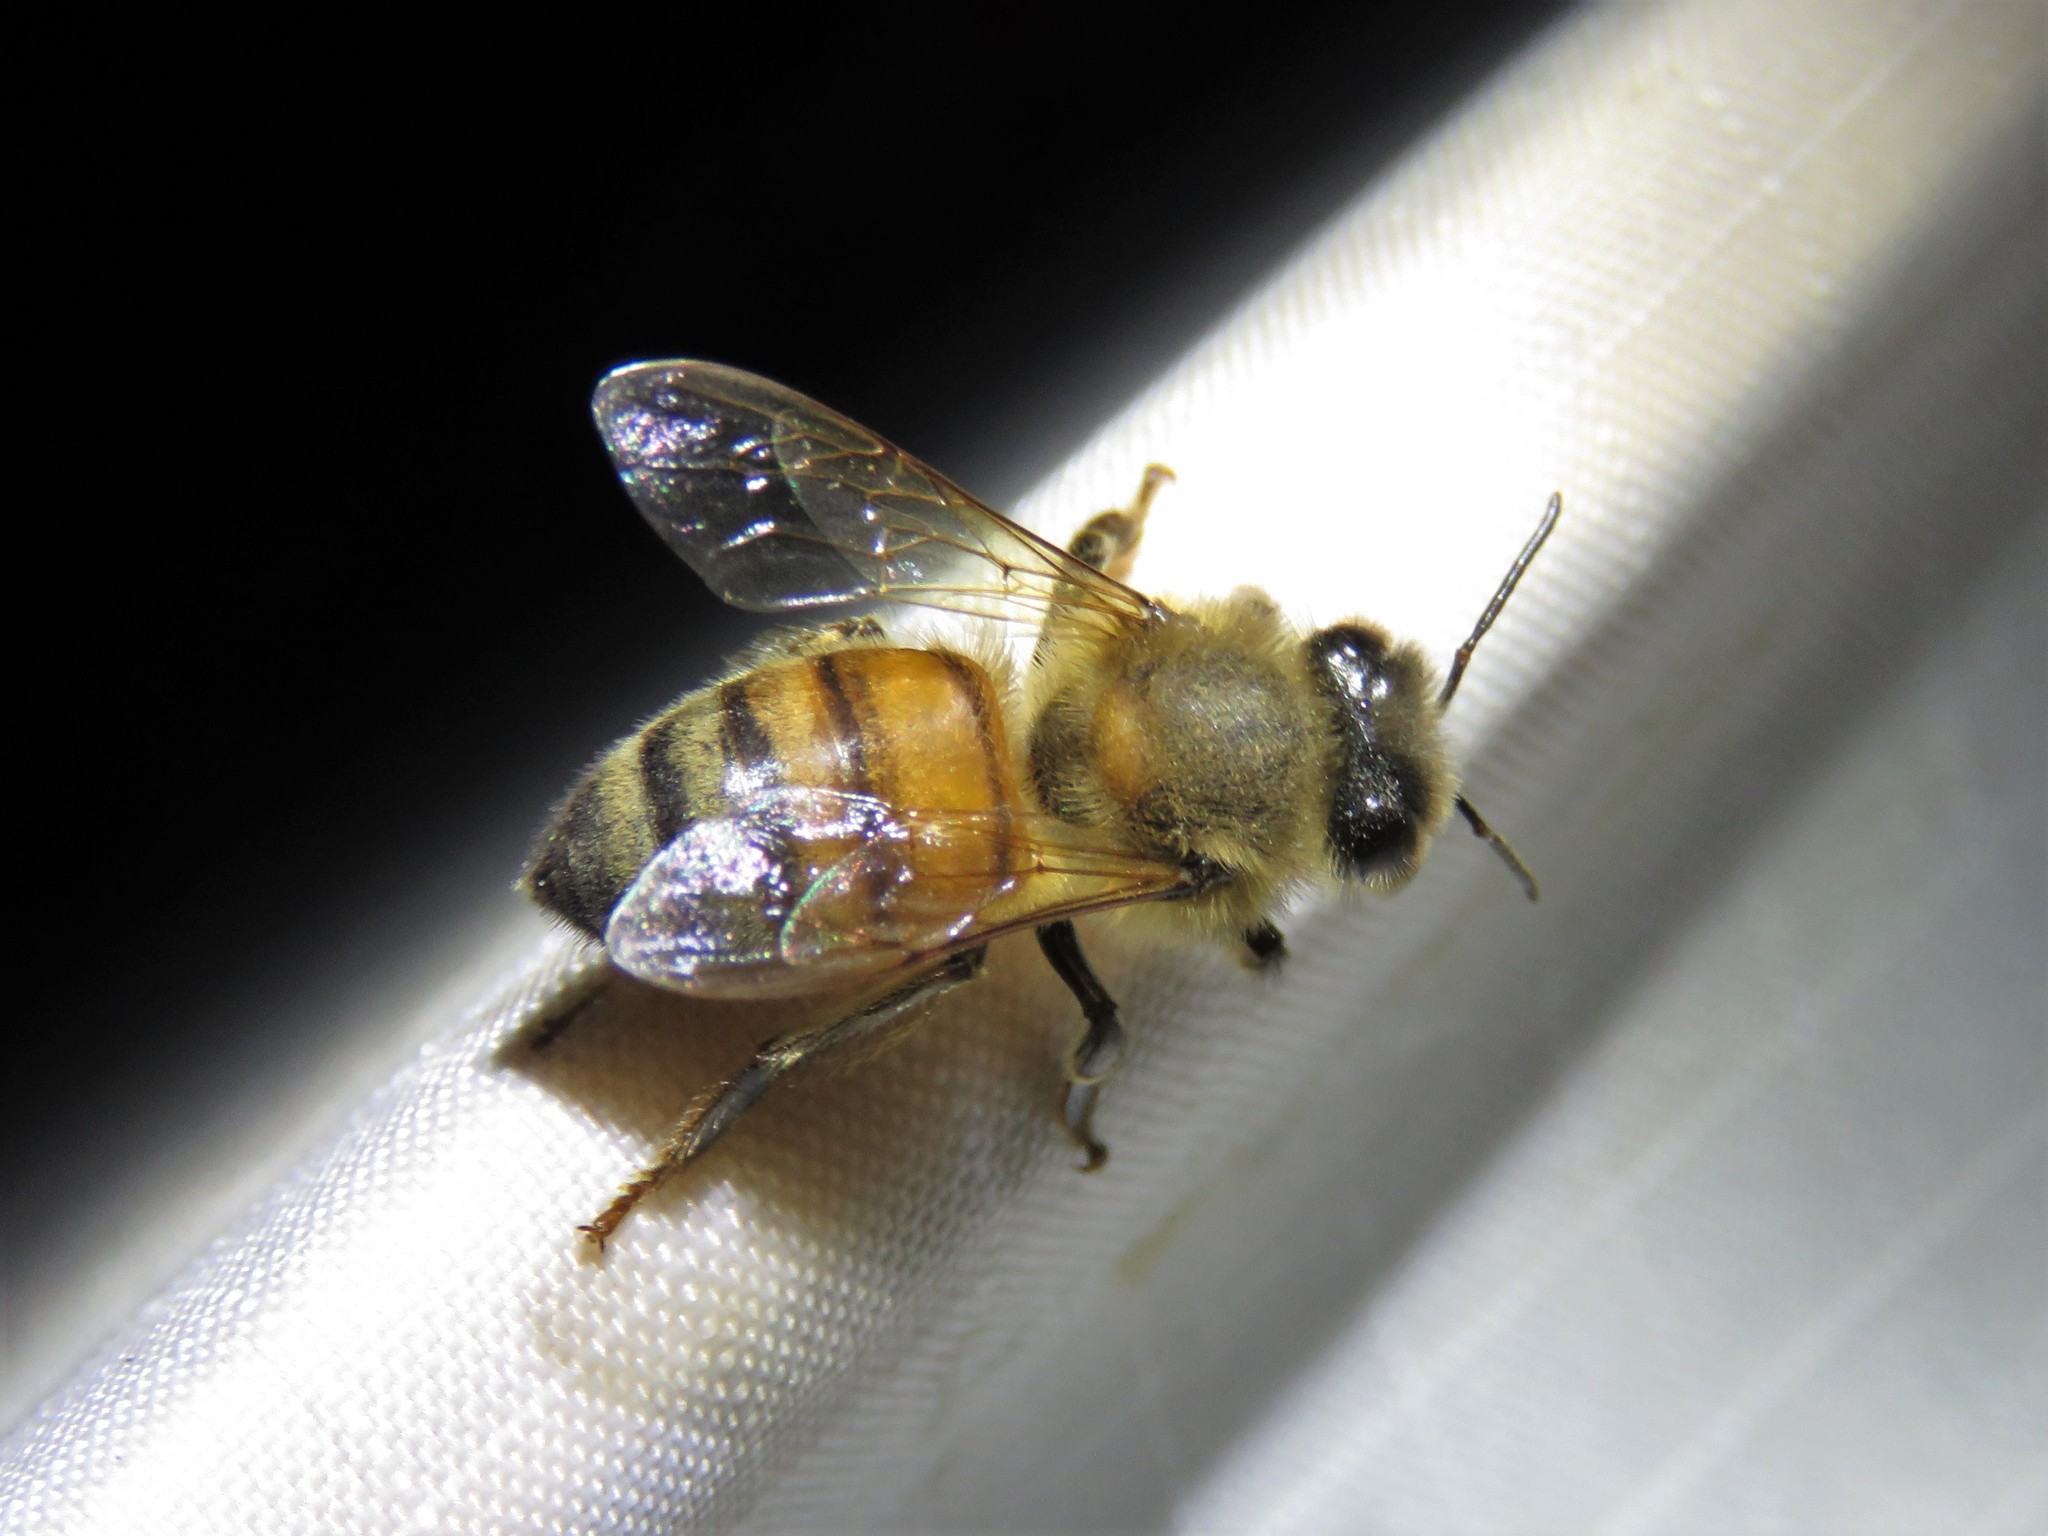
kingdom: Animalia
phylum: Arthropoda
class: Insecta
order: Hymenoptera
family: Apidae
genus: Apis
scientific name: Apis mellifera
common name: Honey bee
